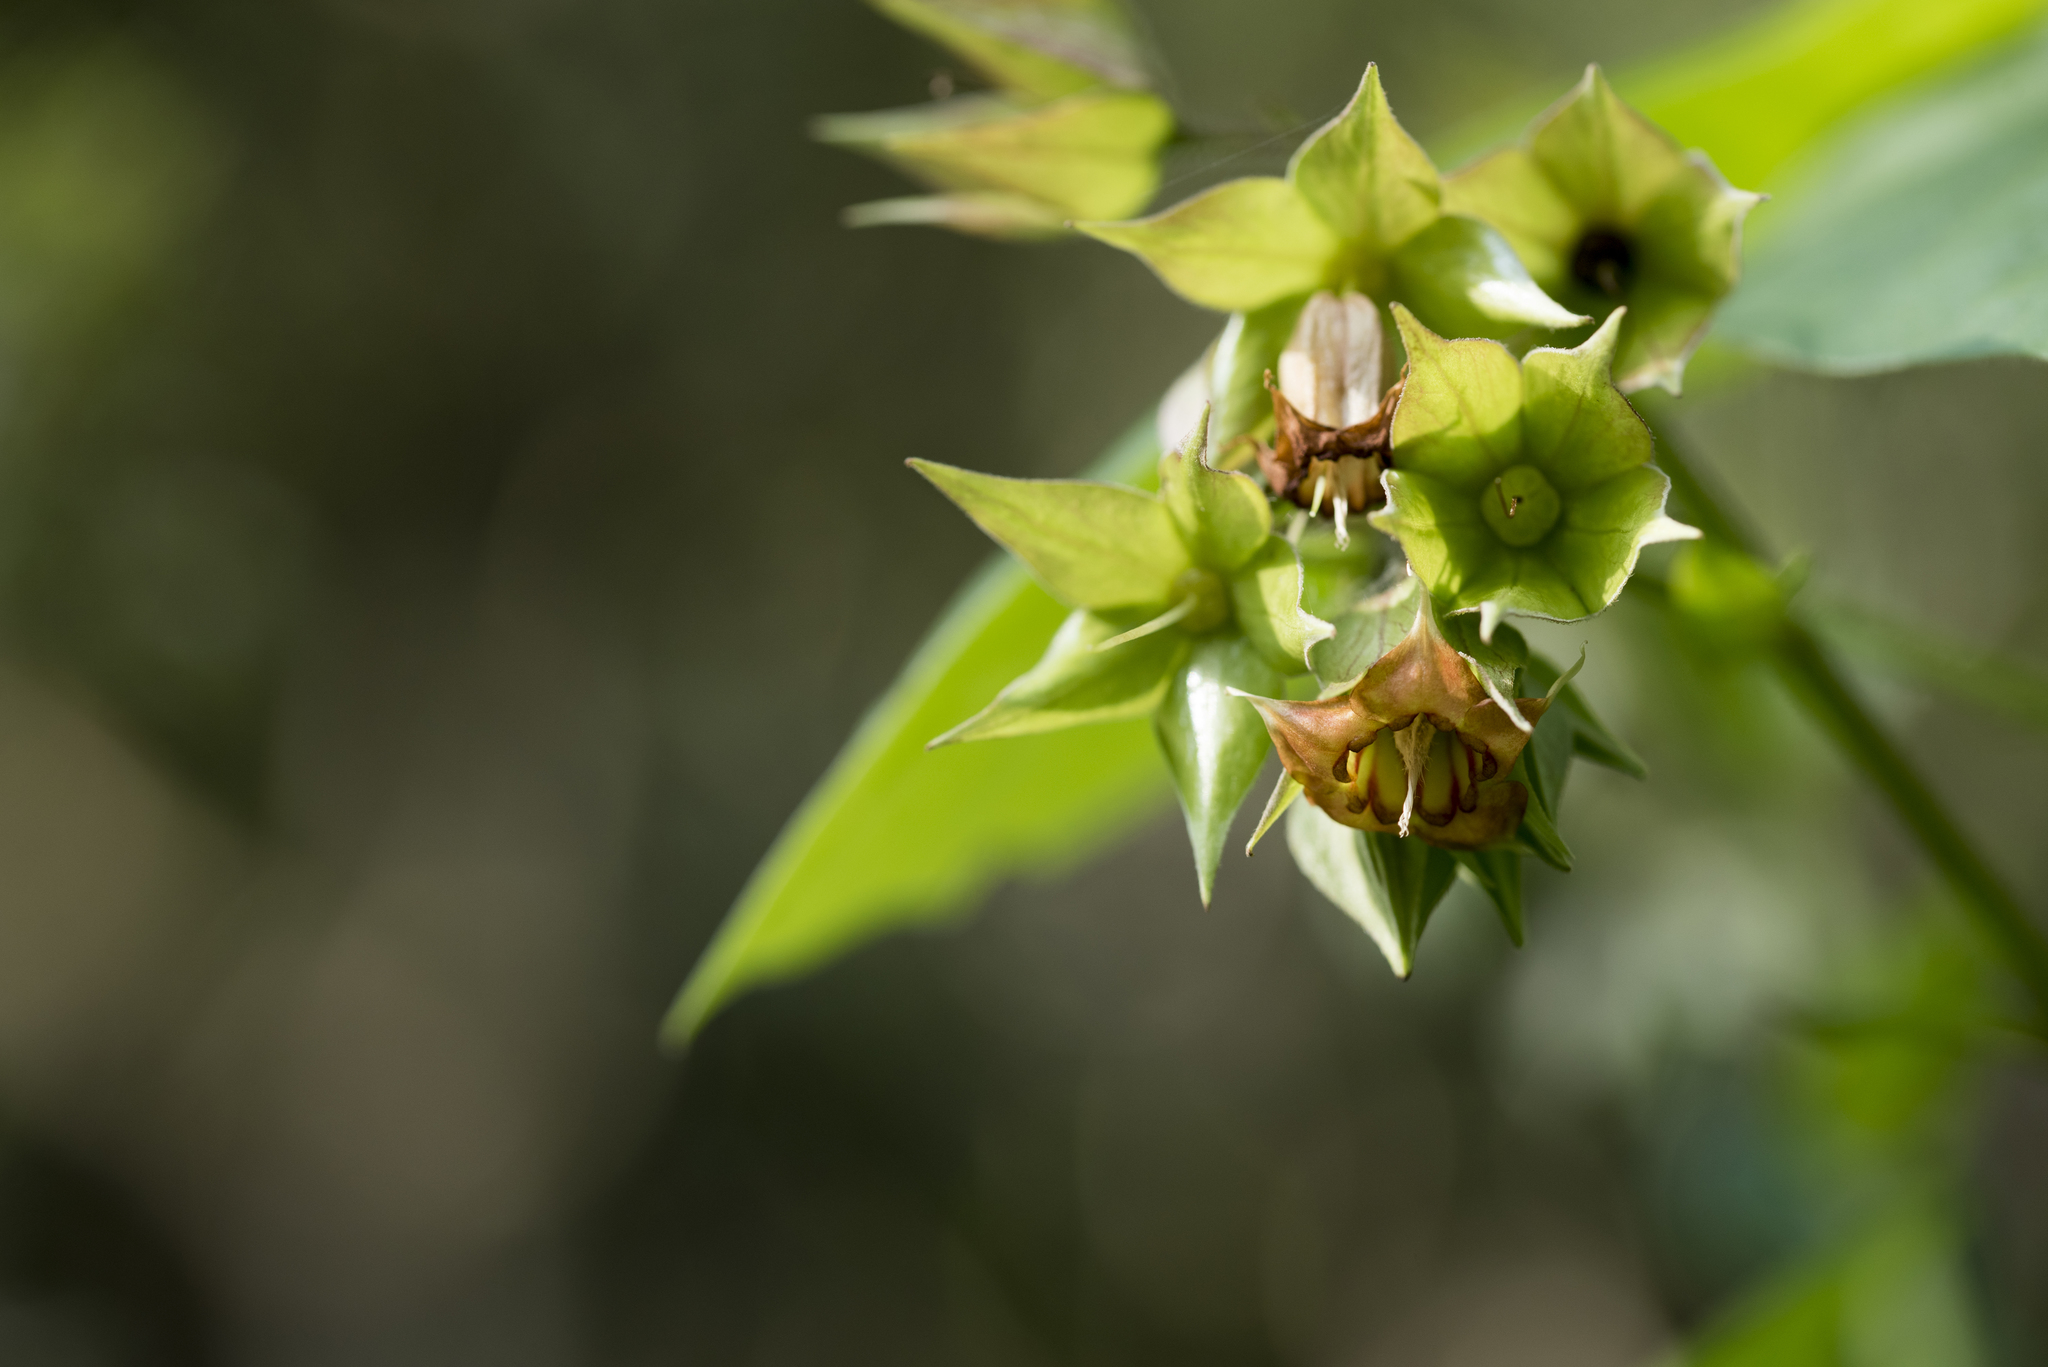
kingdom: Plantae
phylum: Tracheophyta
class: Magnoliopsida
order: Boraginales
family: Boraginaceae
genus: Trichodesma
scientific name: Trichodesma calycosum
